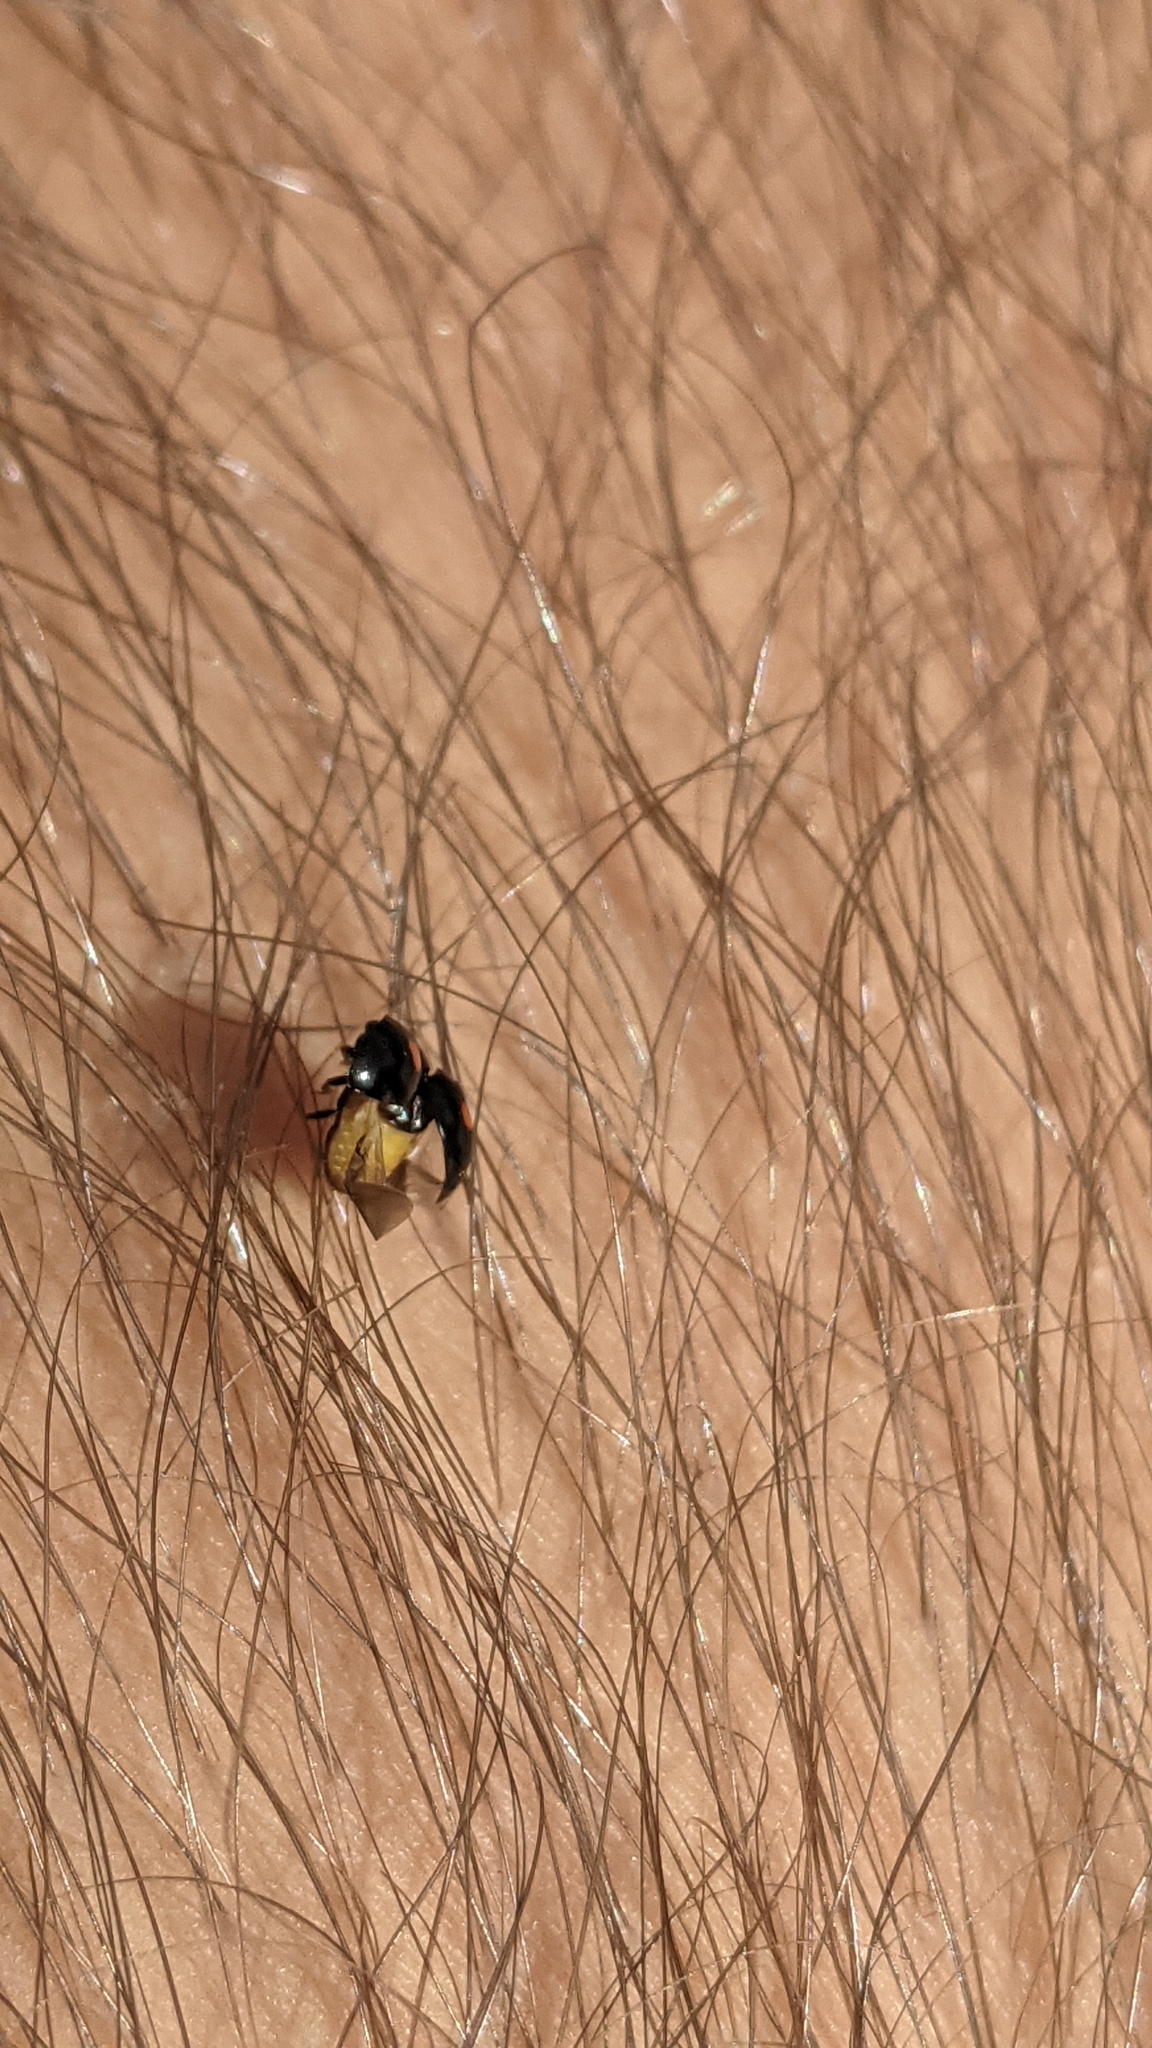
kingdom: Animalia
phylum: Arthropoda
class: Insecta
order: Coleoptera
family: Coccinellidae
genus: Chilocorus
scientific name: Chilocorus stigma
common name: Twicestabbed lady beetle
